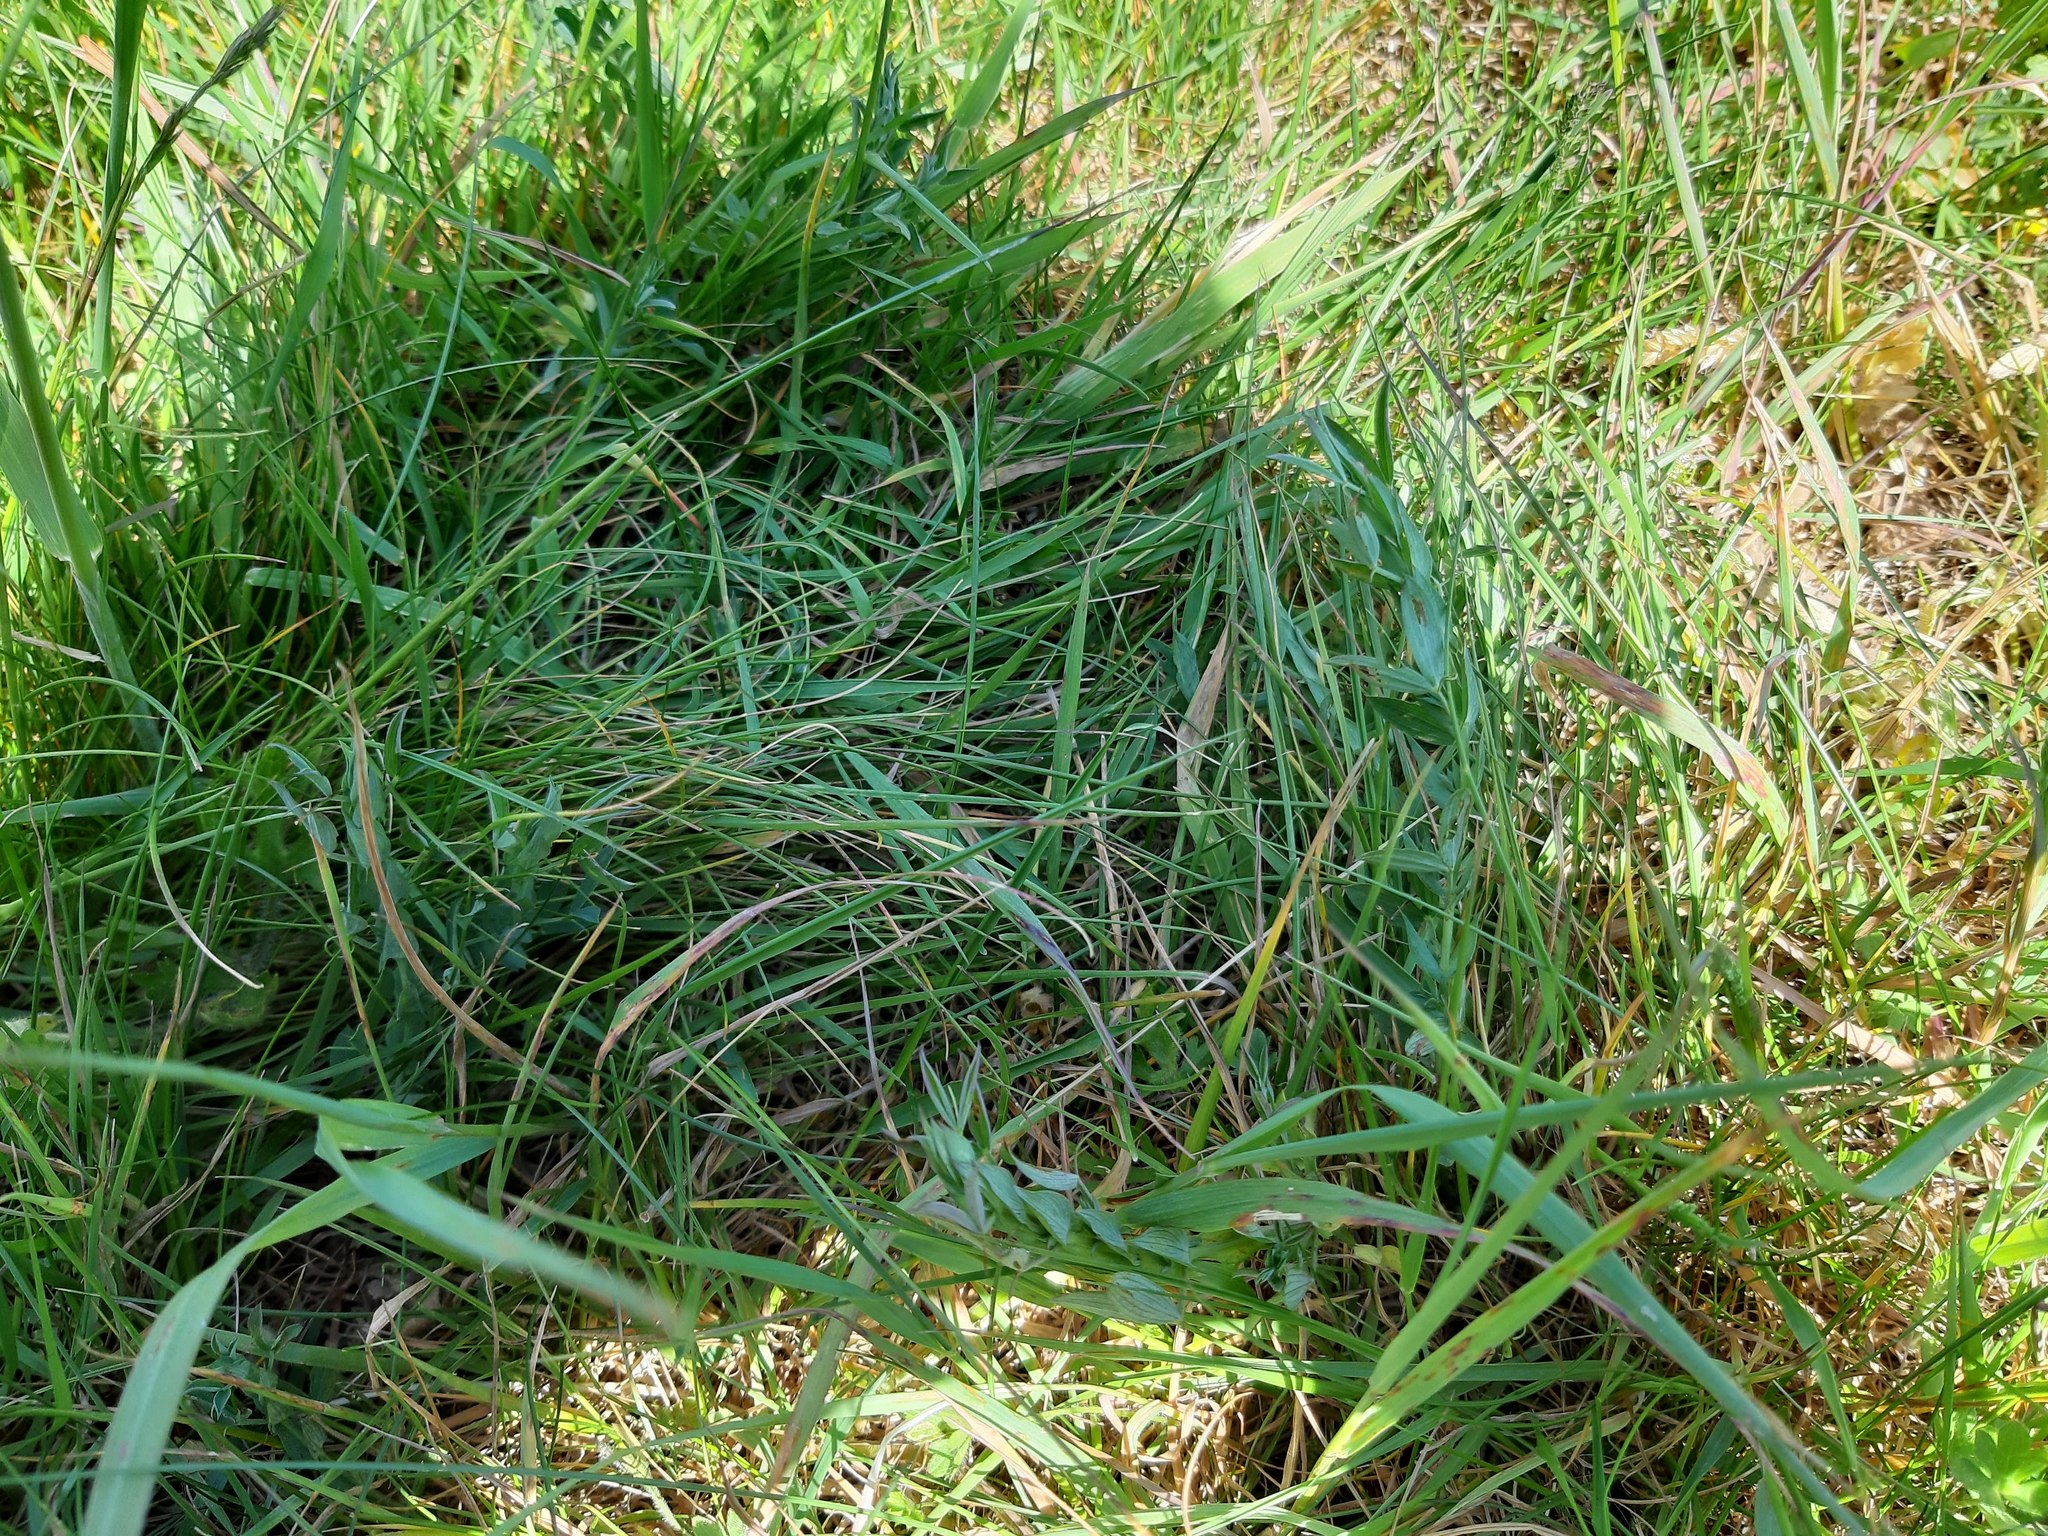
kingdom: Plantae
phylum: Tracheophyta
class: Magnoliopsida
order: Fabales
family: Fabaceae
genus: Lathyrus
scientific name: Lathyrus pratensis
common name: Meadow vetchling
